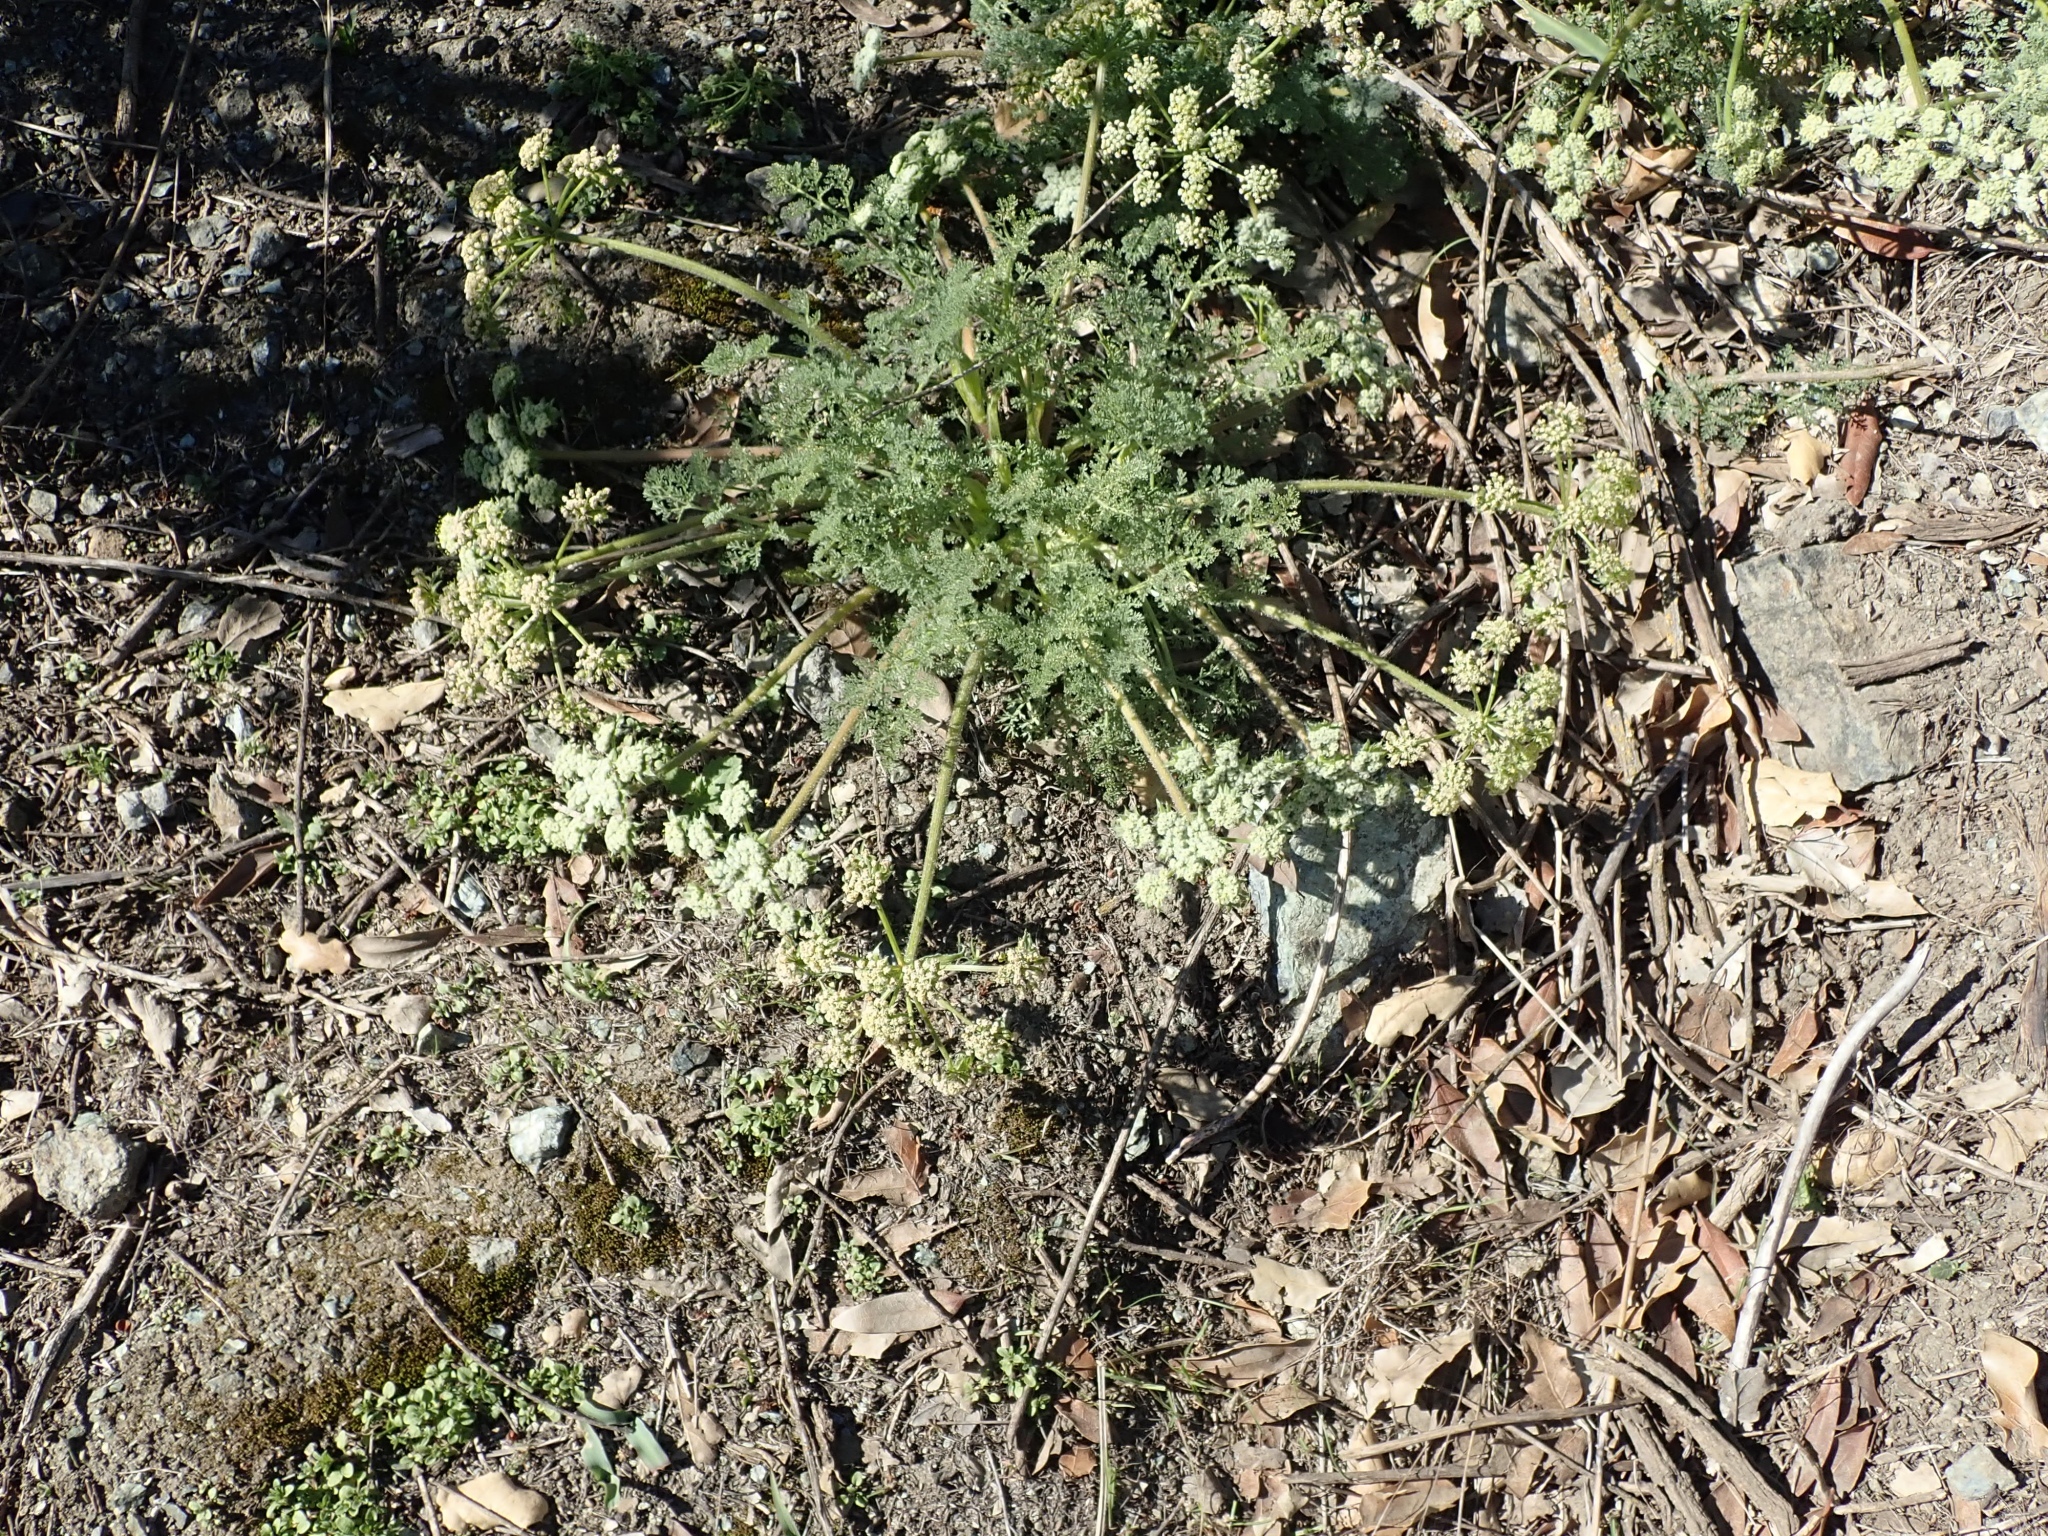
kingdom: Plantae
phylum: Tracheophyta
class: Magnoliopsida
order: Apiales
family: Apiaceae
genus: Lomatium
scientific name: Lomatium dasycarpum
